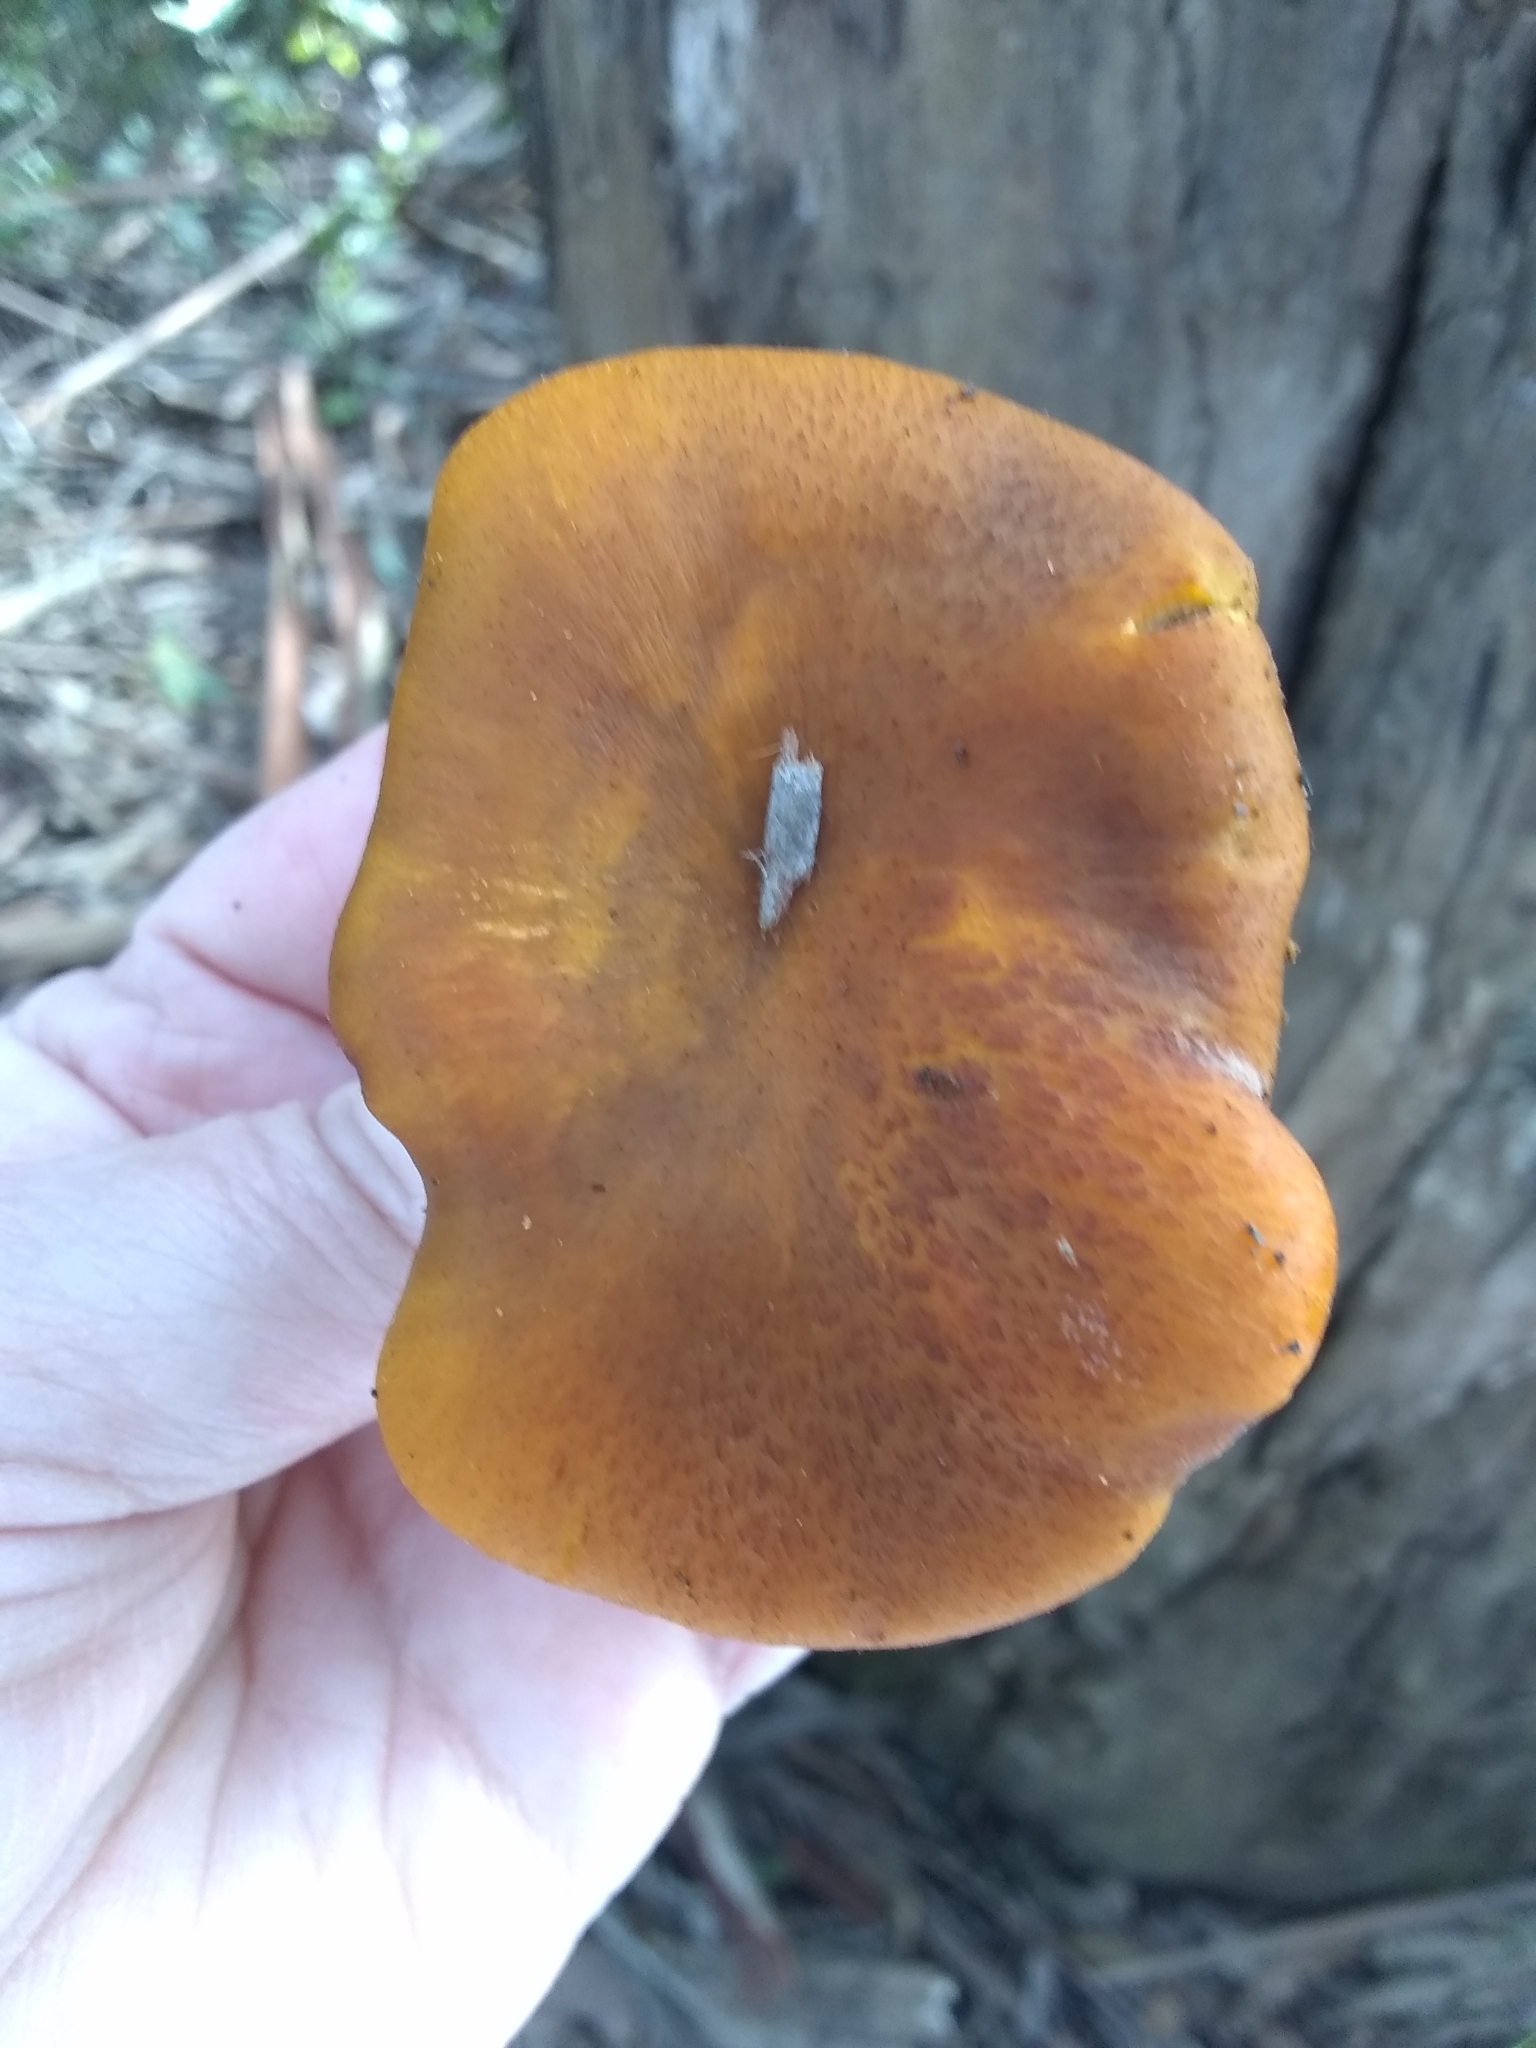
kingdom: Fungi
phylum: Basidiomycota
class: Agaricomycetes
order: Agaricales
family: Omphalotaceae
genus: Omphalotus
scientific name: Omphalotus olivascens
